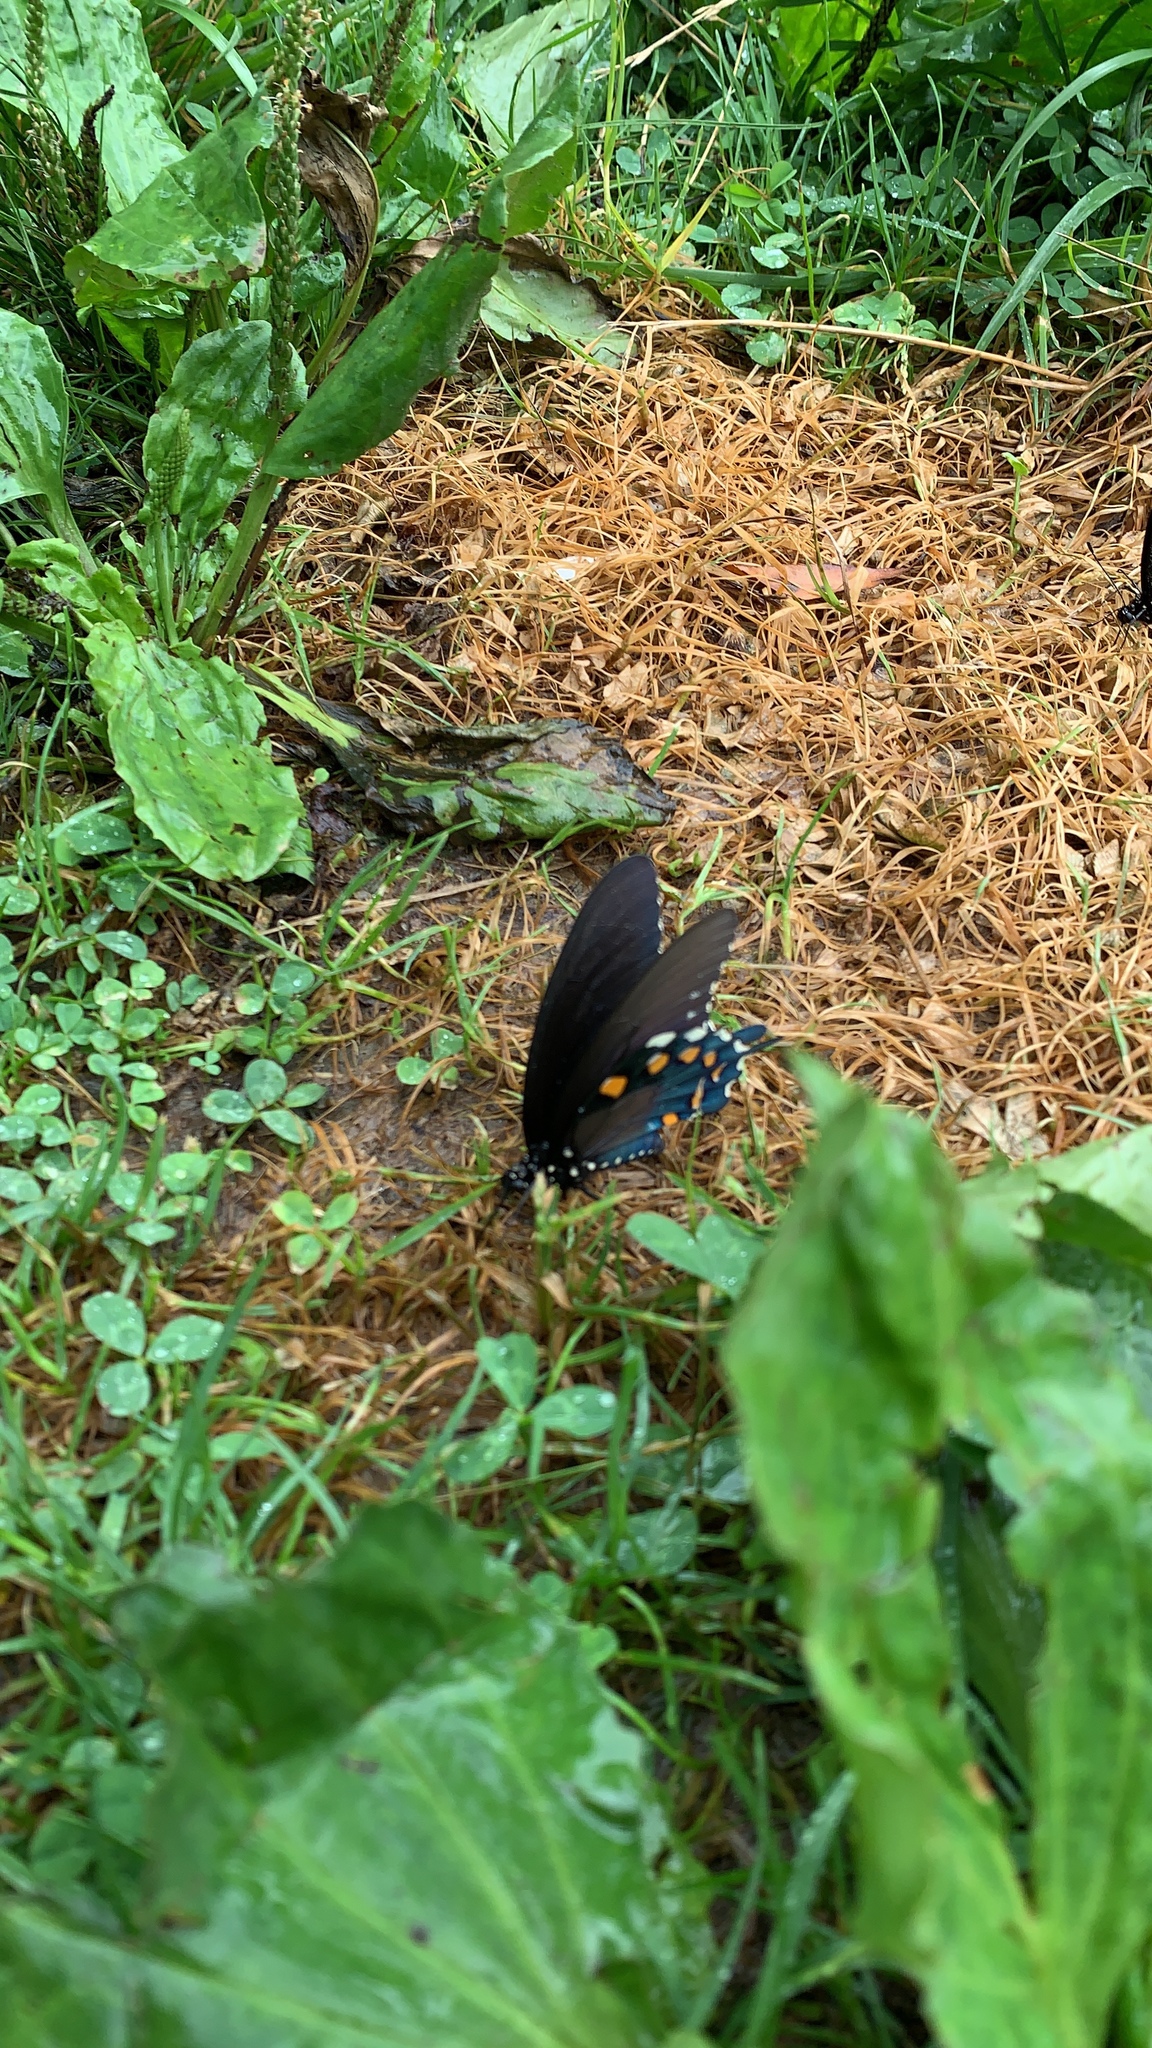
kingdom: Animalia
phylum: Arthropoda
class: Insecta
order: Lepidoptera
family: Papilionidae
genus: Battus
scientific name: Battus philenor
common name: Pipevine swallowtail
